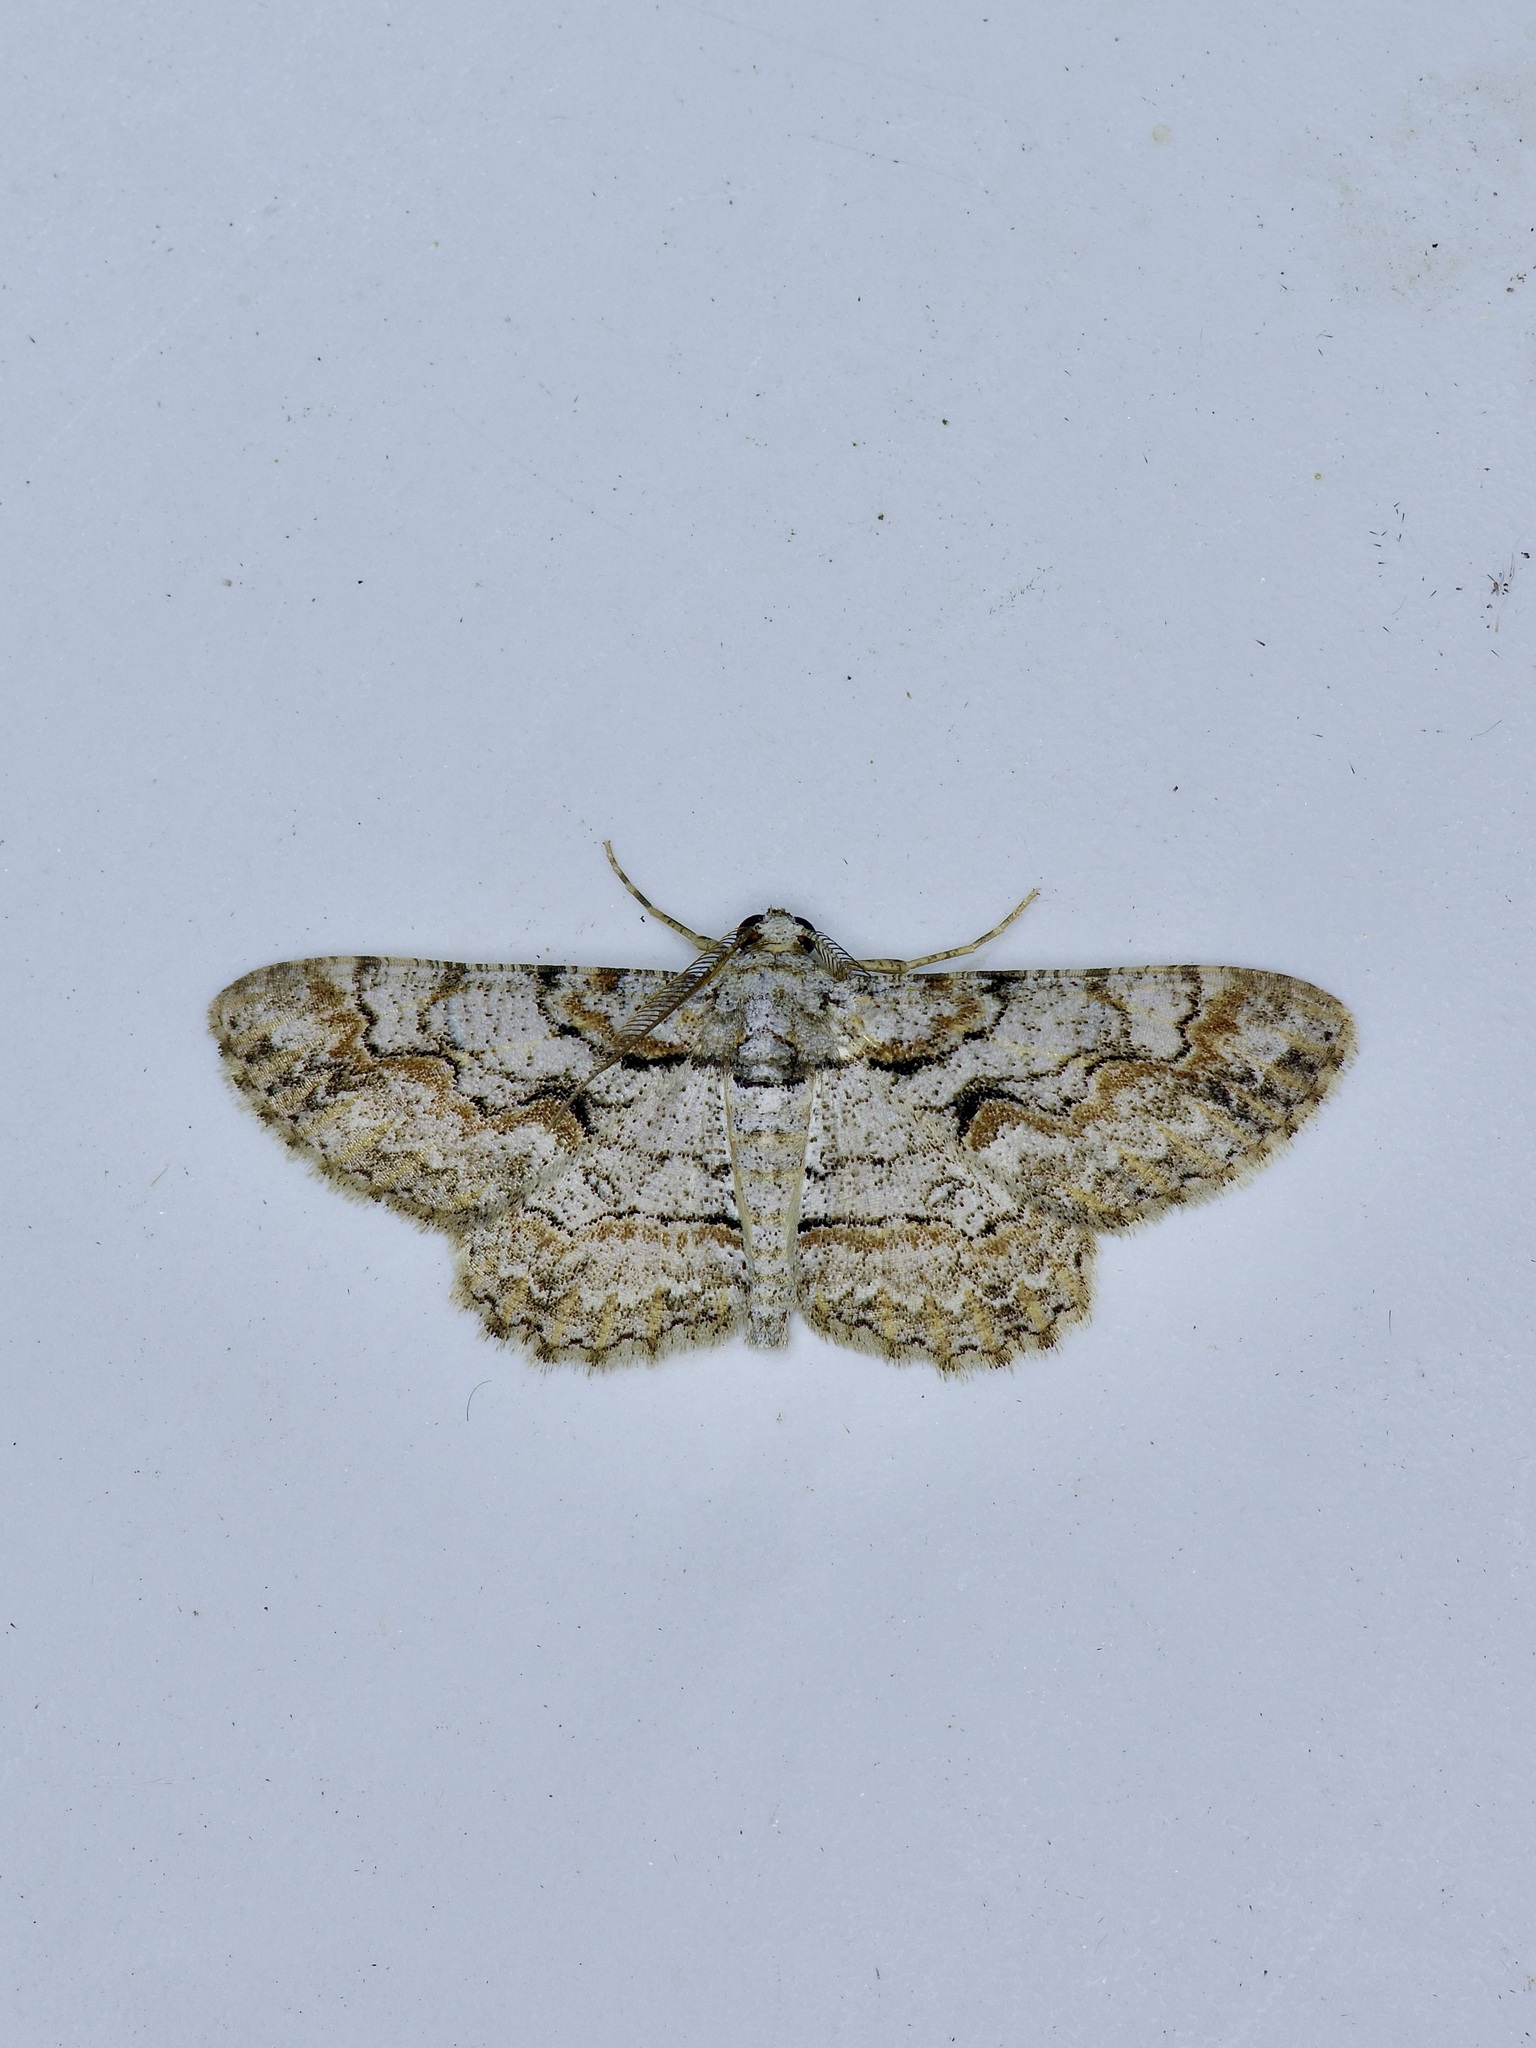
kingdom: Animalia
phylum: Arthropoda
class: Insecta
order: Lepidoptera
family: Geometridae
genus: Iridopsis
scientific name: Iridopsis defectaria
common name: Brown-shaded gray
